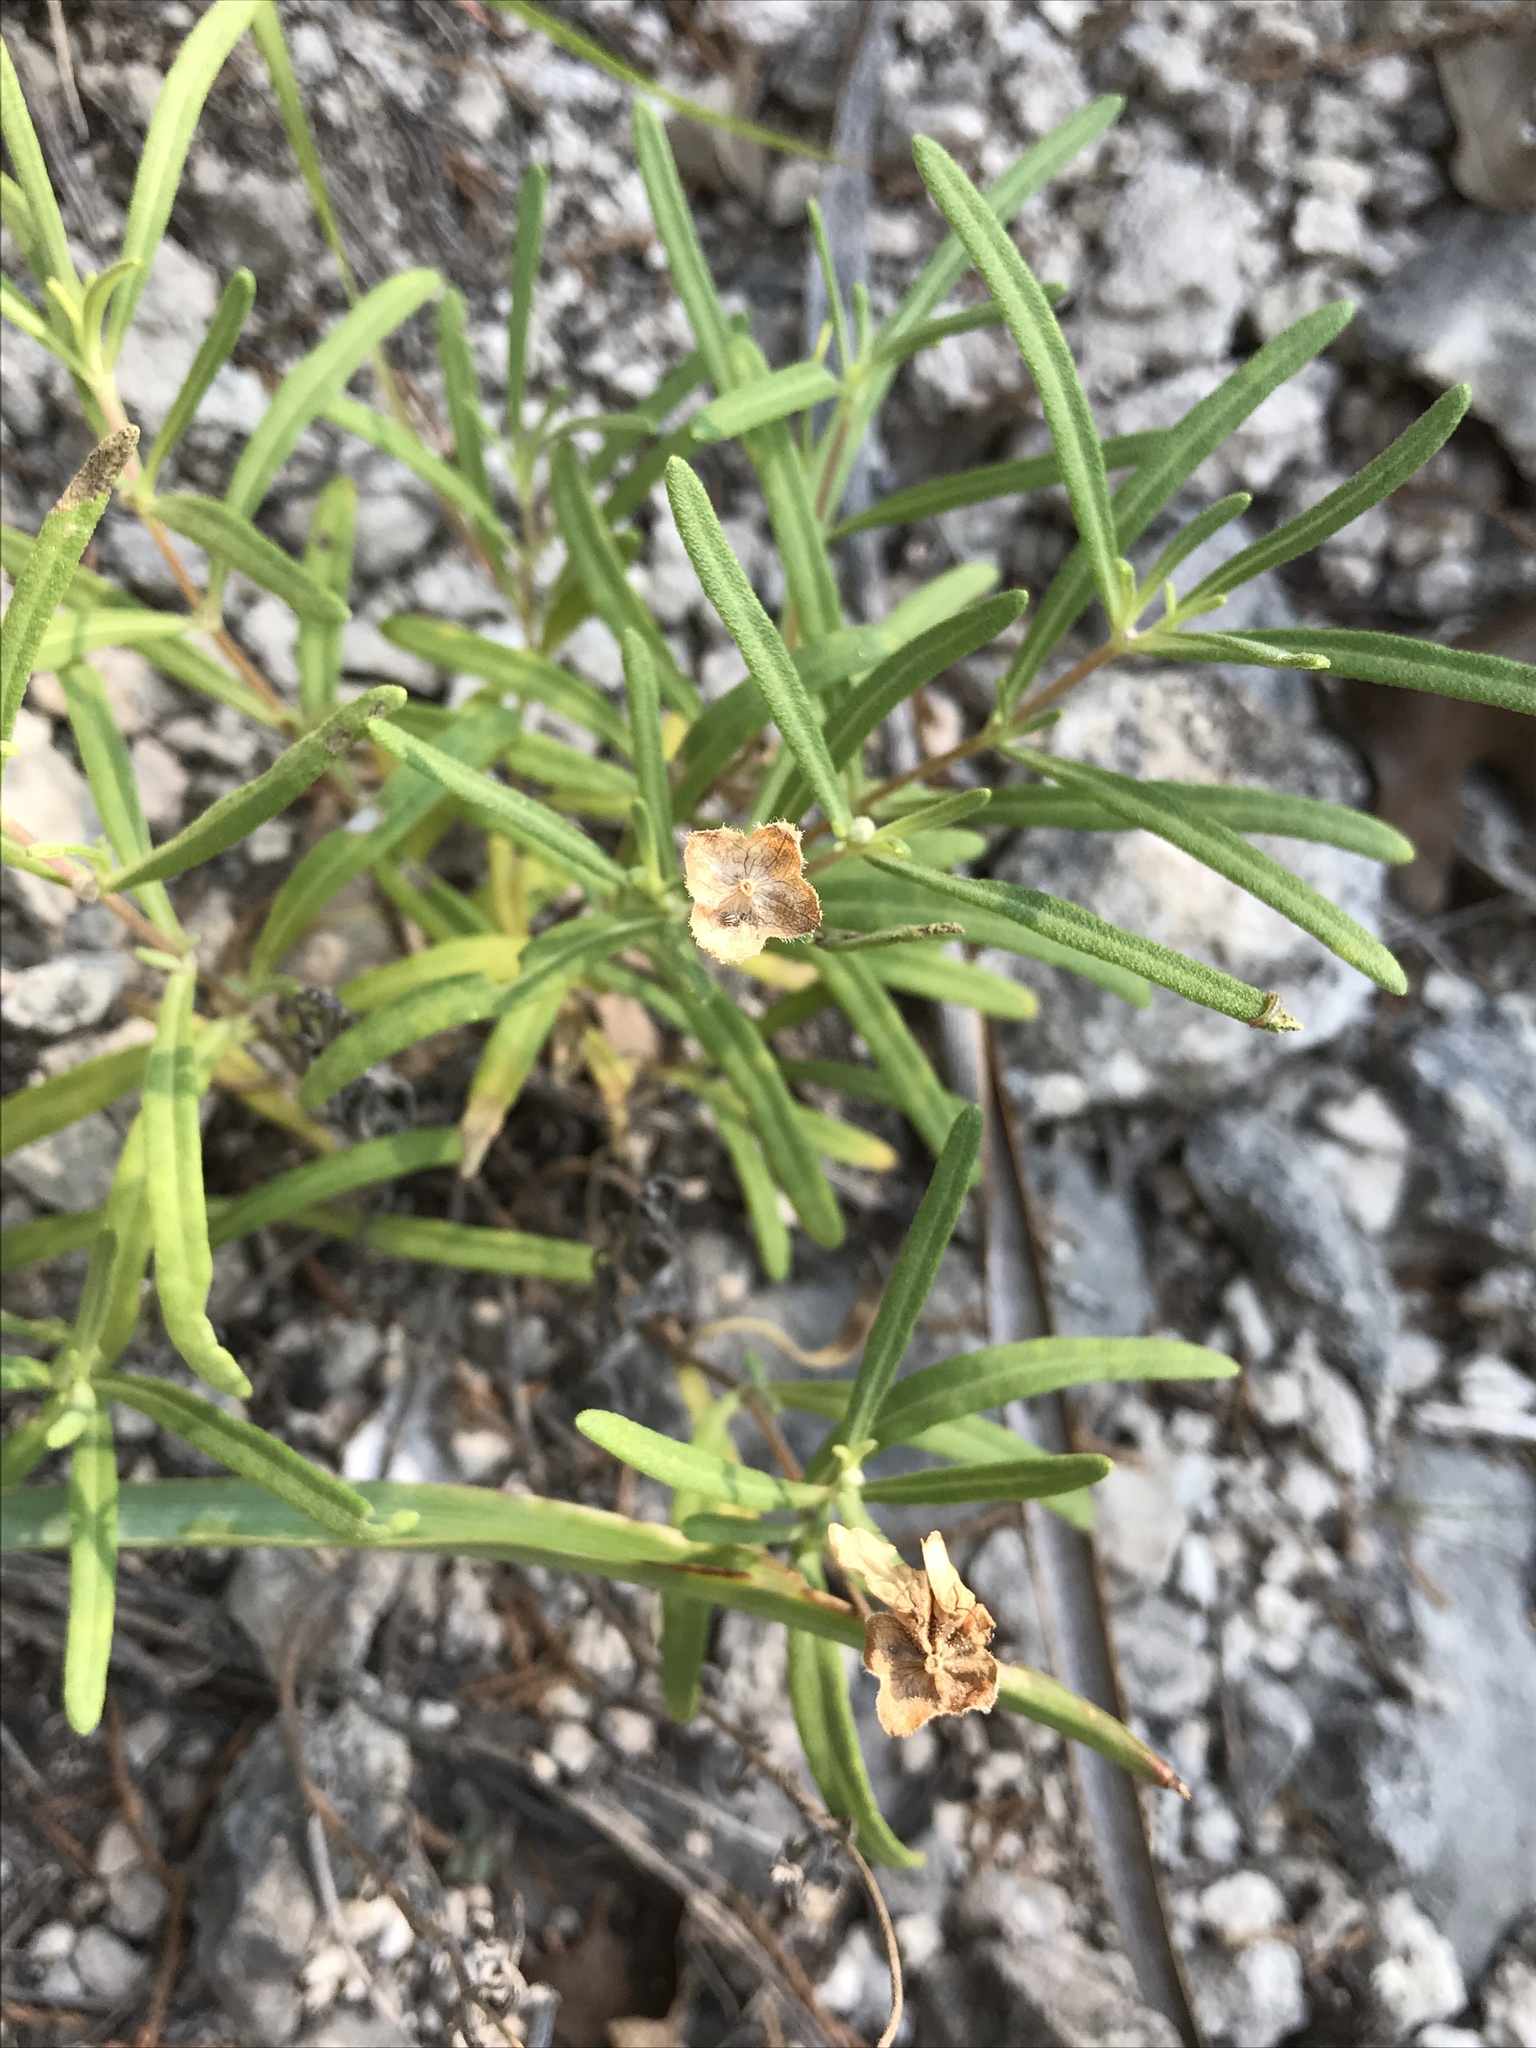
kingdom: Plantae
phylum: Tracheophyta
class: Magnoliopsida
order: Malvales
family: Cistaceae
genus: Crocanthemum
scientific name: Crocanthemum rosmarinifolium
